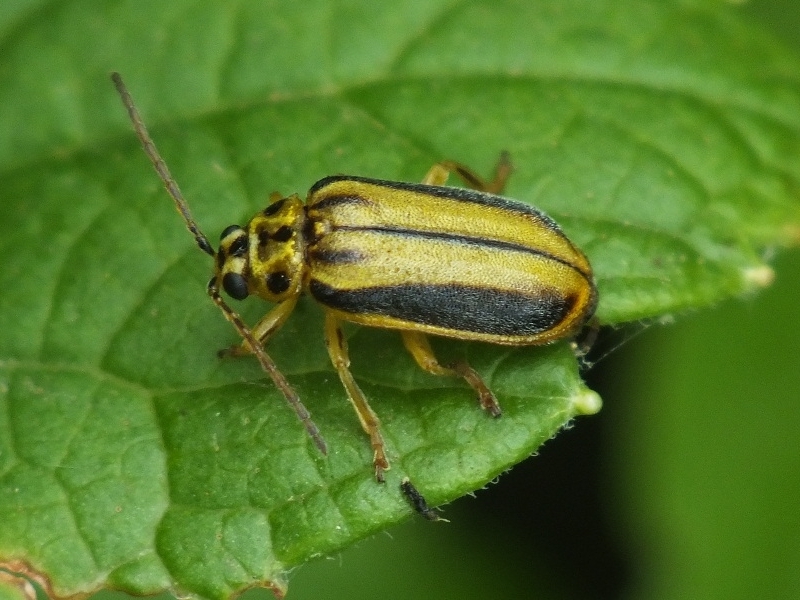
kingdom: Animalia
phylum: Arthropoda
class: Insecta
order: Coleoptera
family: Chrysomelidae
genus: Xanthogaleruca
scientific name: Xanthogaleruca luteola
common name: Elm leaf beetle
